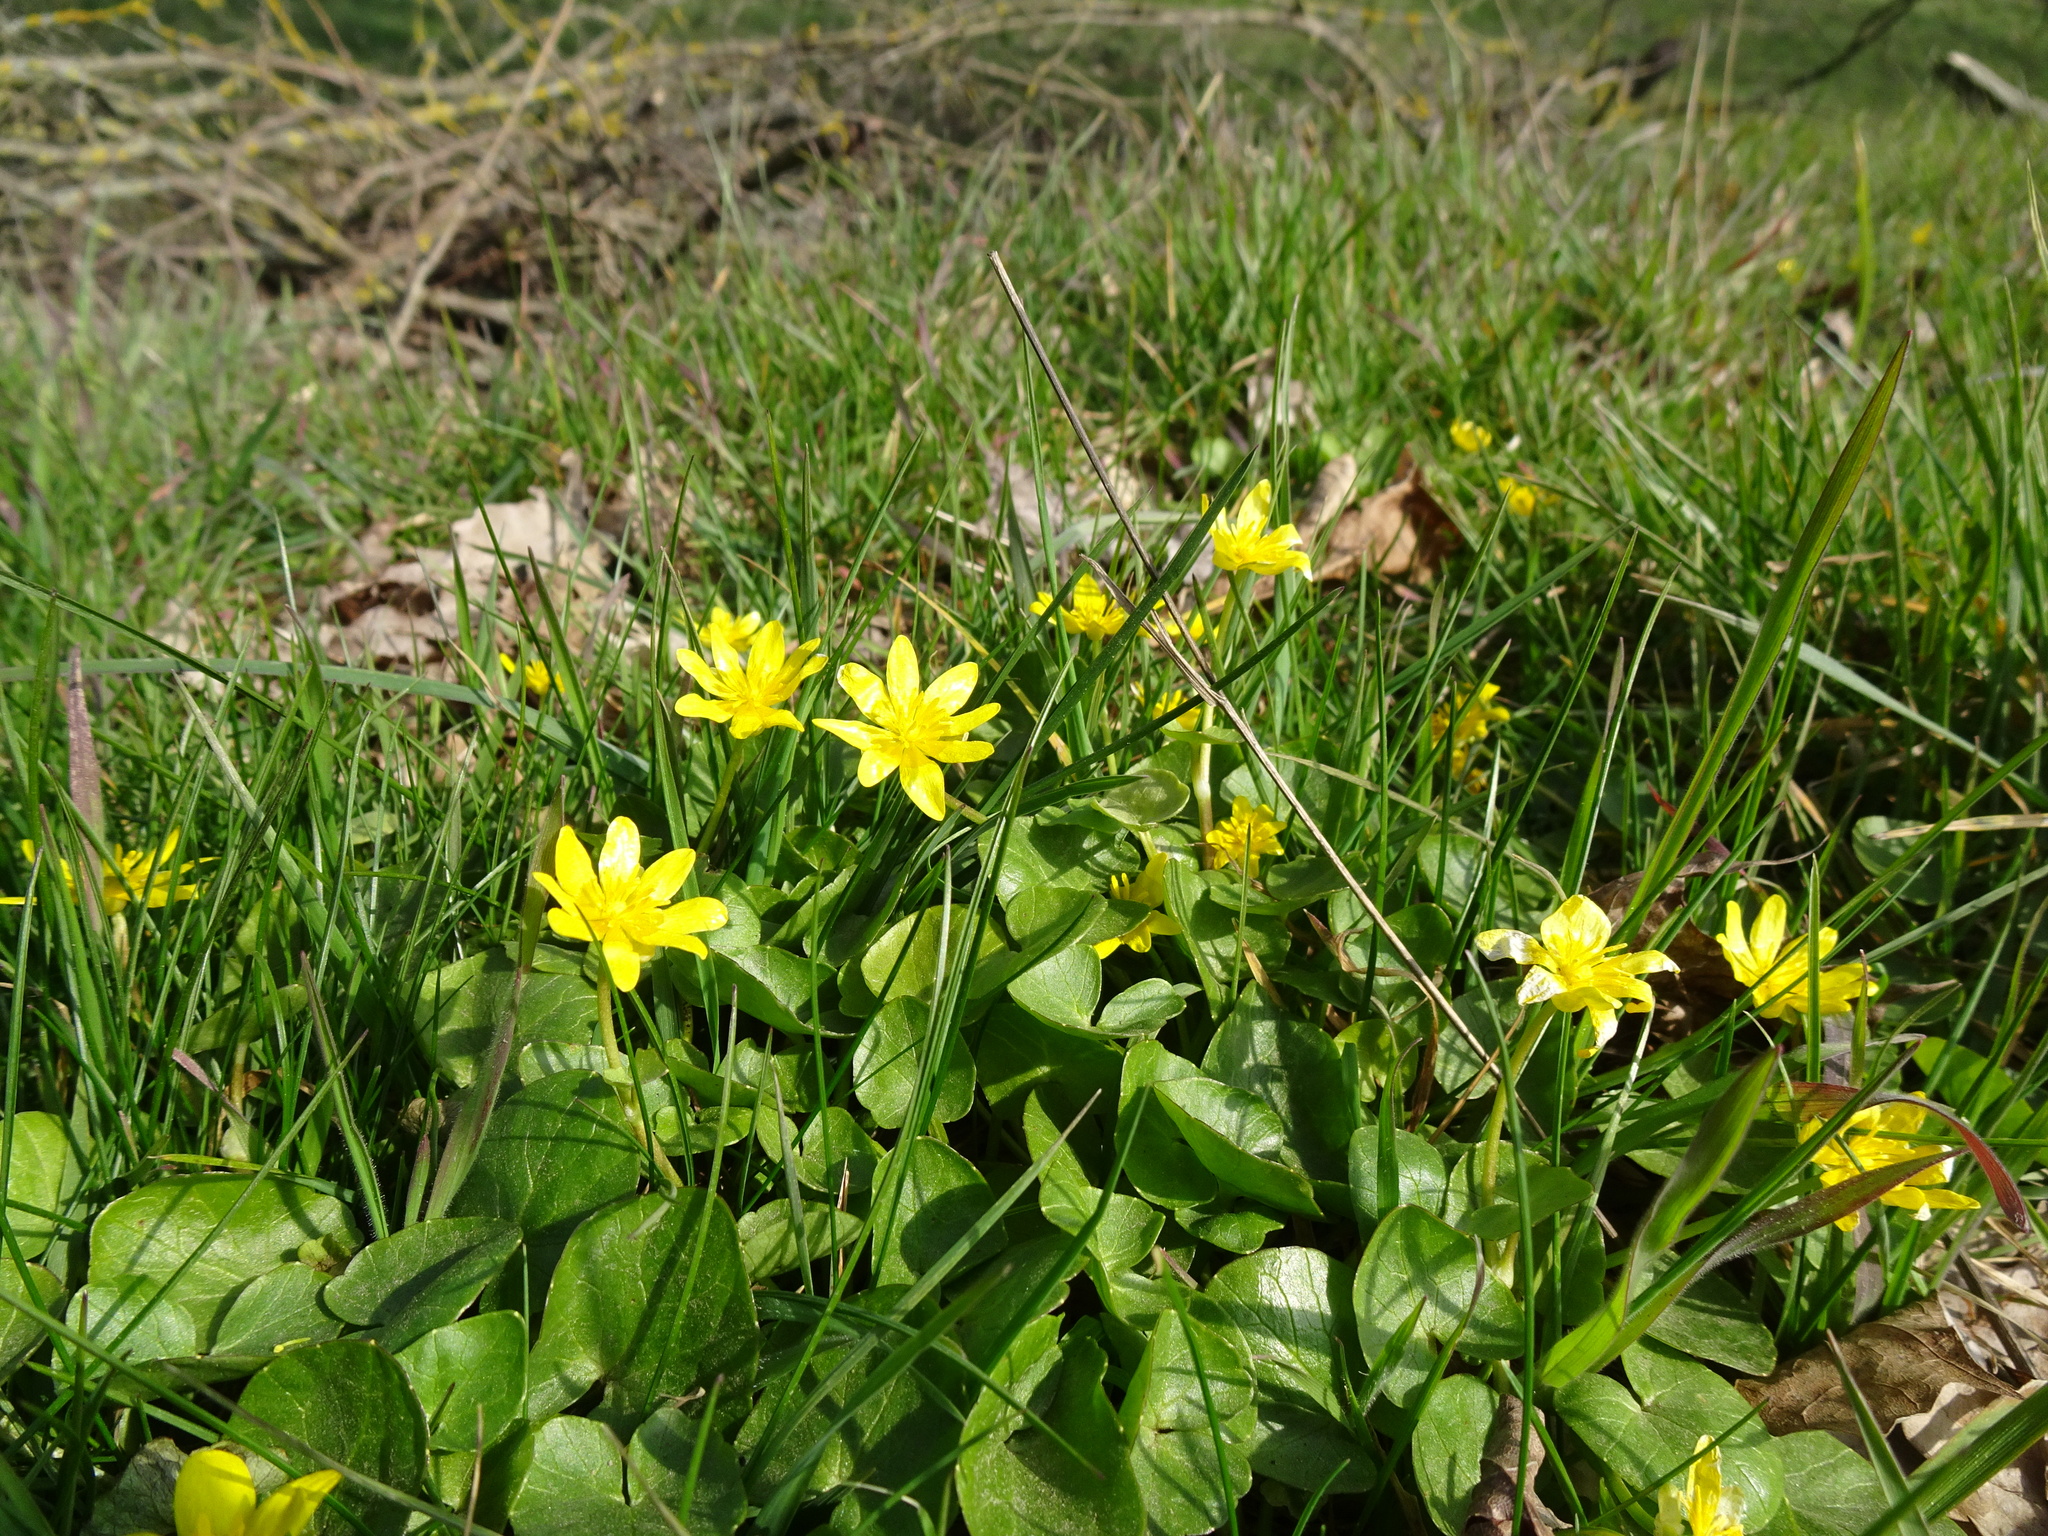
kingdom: Plantae
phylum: Tracheophyta
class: Magnoliopsida
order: Ranunculales
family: Ranunculaceae
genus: Ficaria
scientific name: Ficaria verna
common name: Lesser celandine
